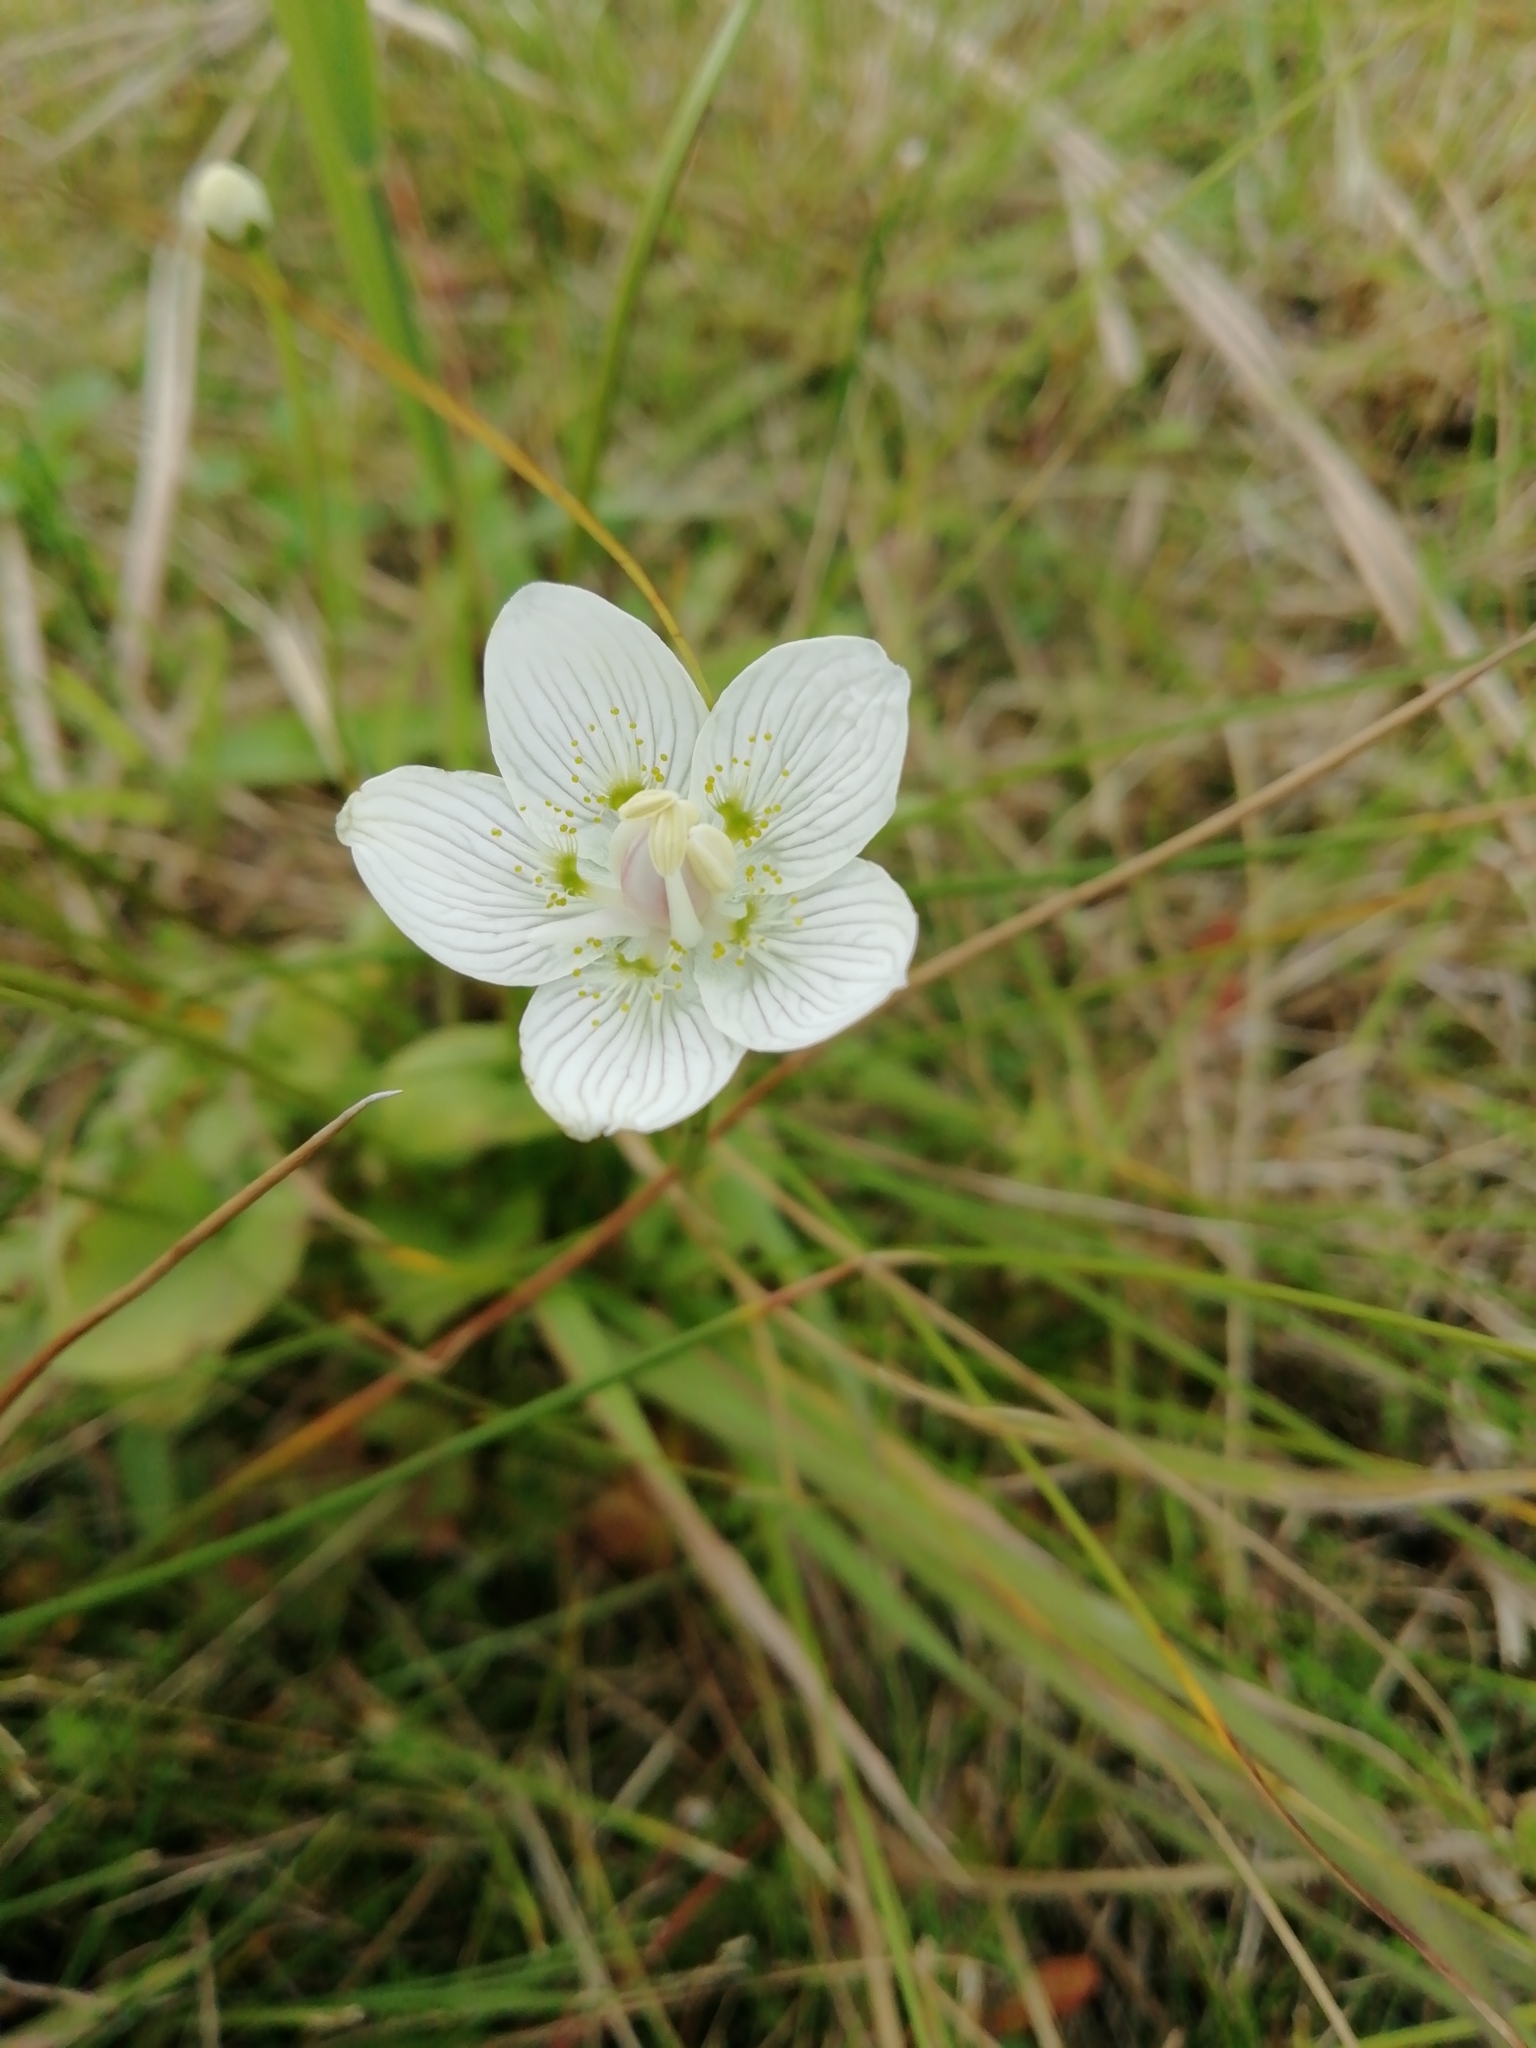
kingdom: Plantae
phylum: Tracheophyta
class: Magnoliopsida
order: Celastrales
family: Parnassiaceae
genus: Parnassia
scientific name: Parnassia palustris
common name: Grass-of-parnassus
